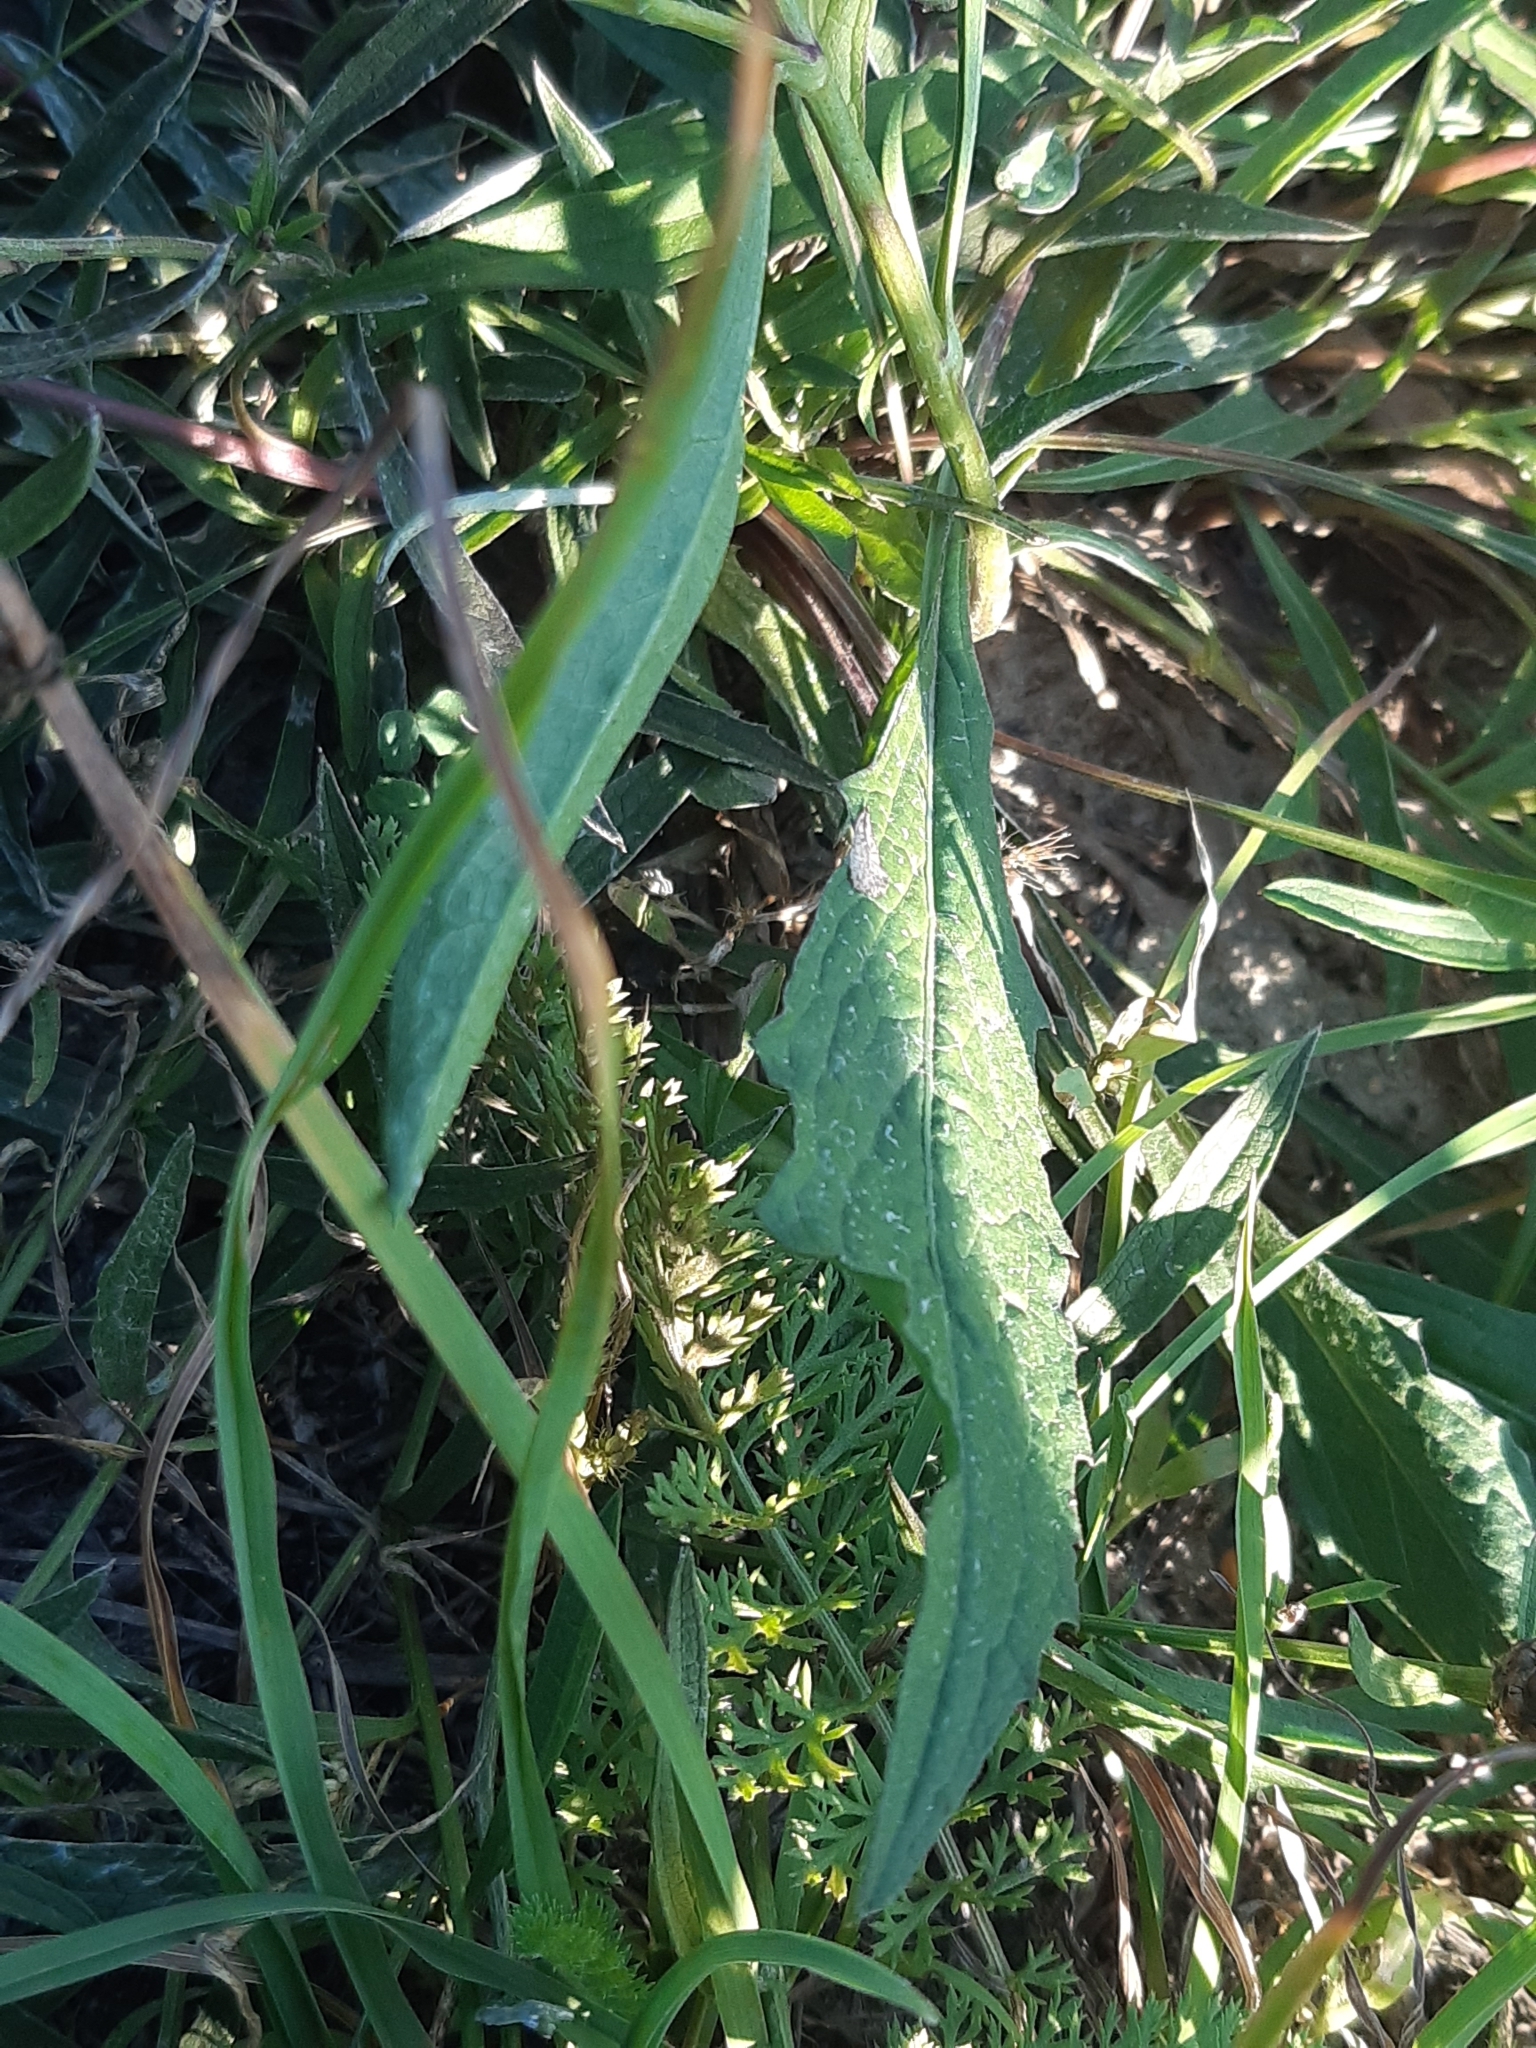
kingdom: Plantae
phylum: Tracheophyta
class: Magnoliopsida
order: Asterales
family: Asteraceae
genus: Centaurea
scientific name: Centaurea jacea
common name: Brown knapweed
